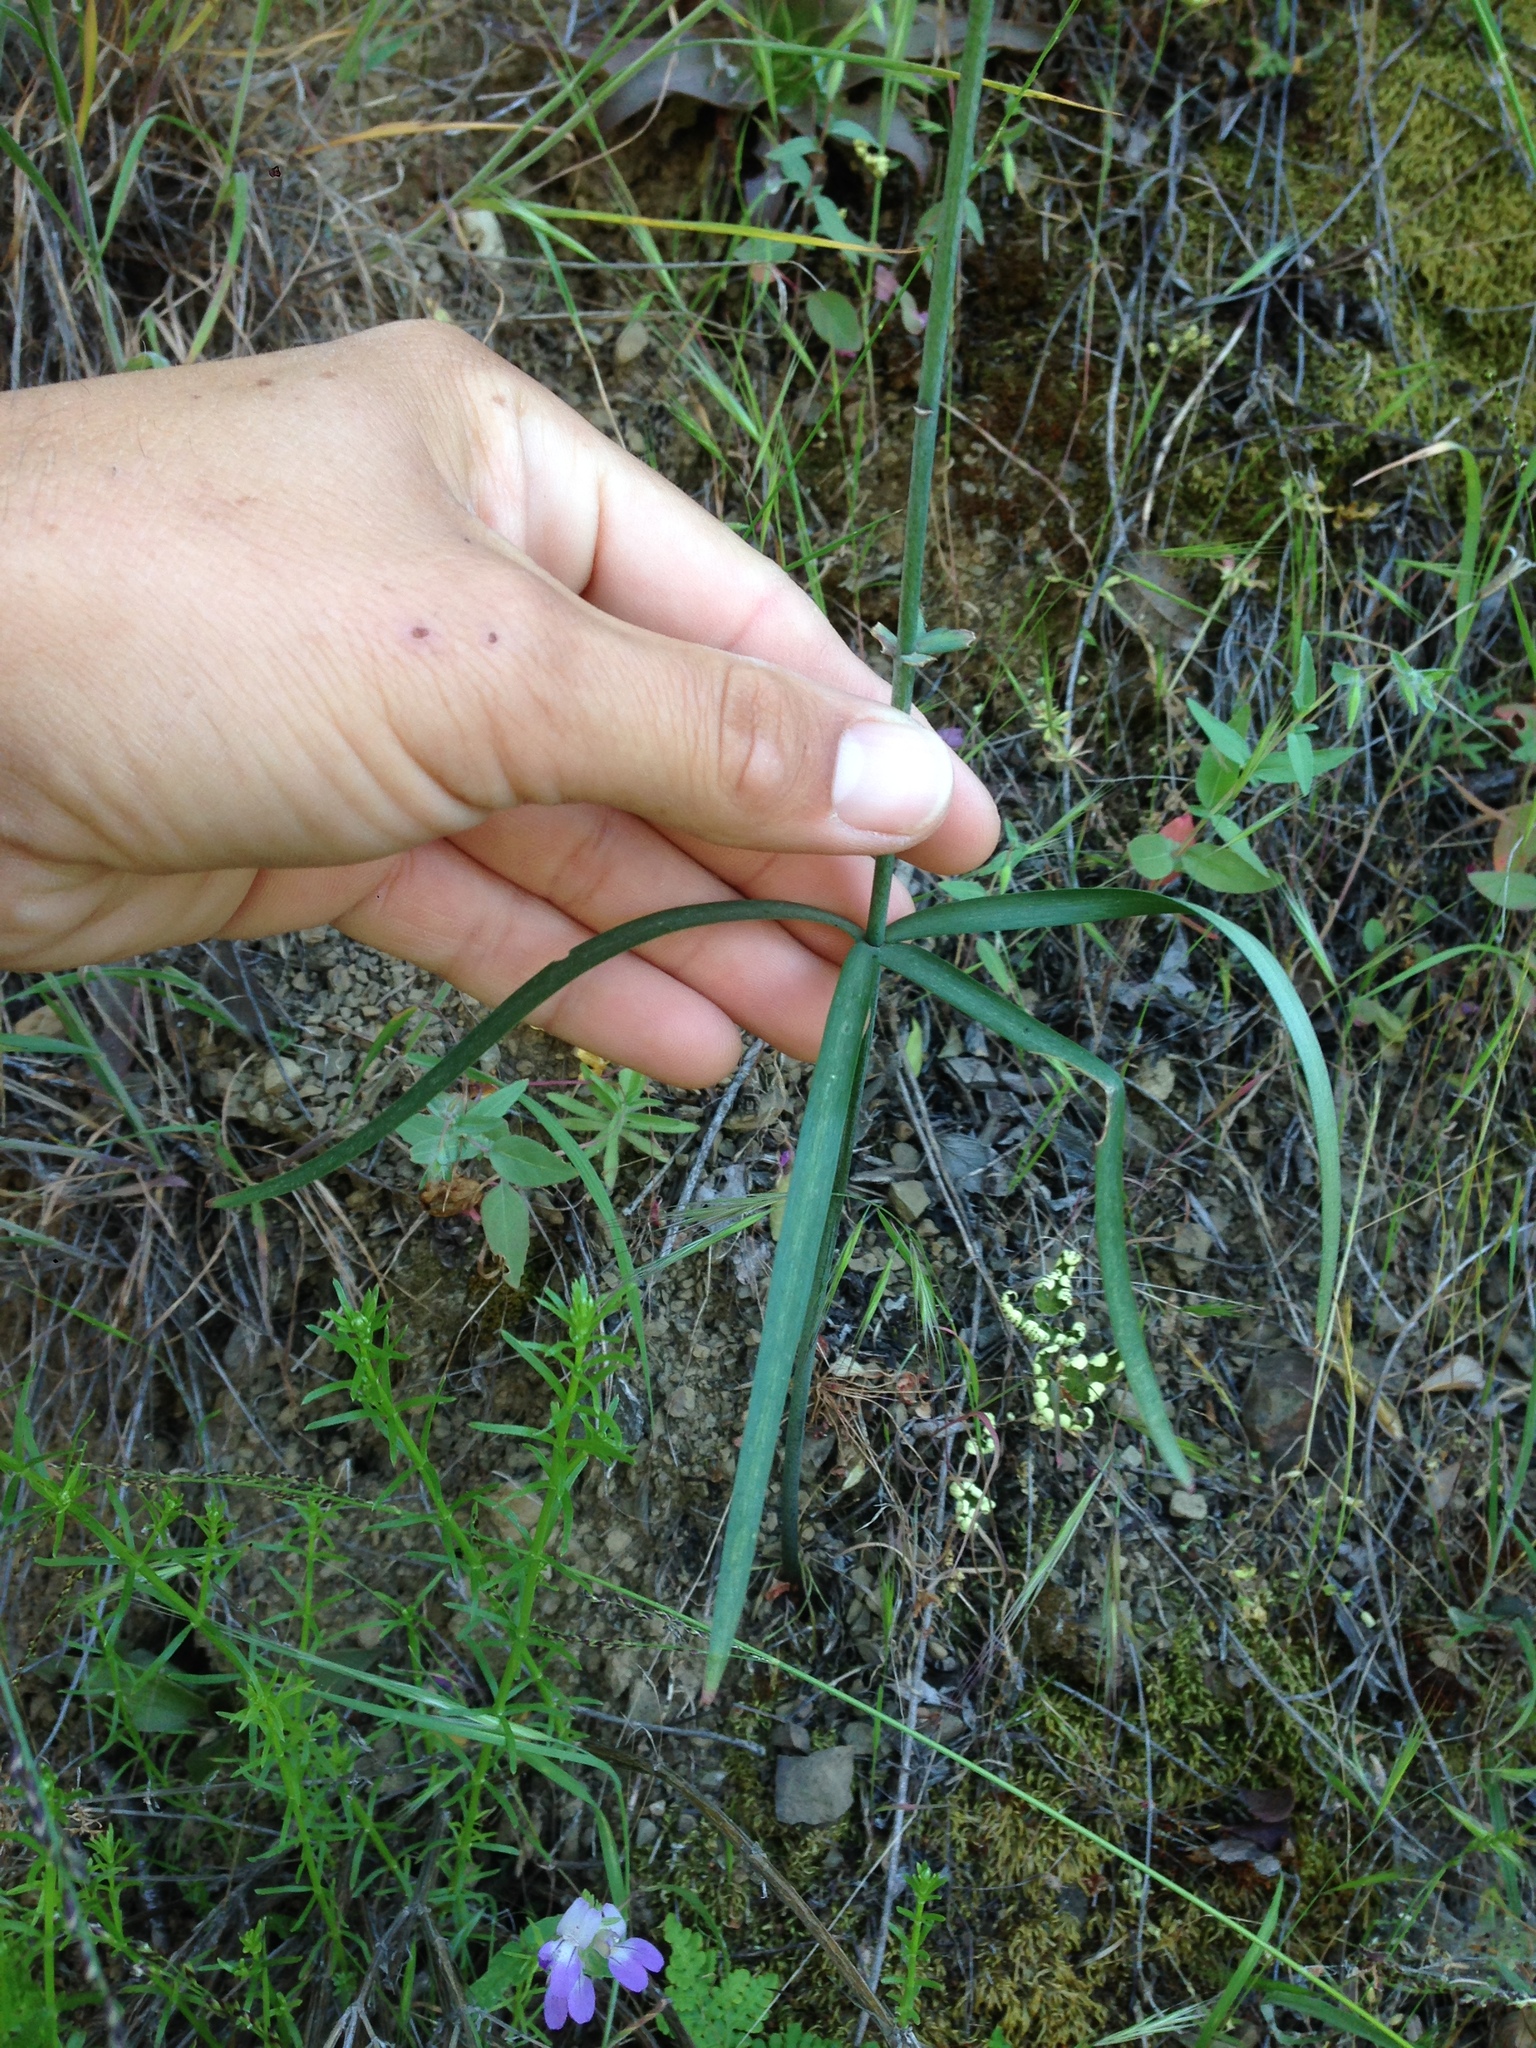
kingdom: Plantae
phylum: Tracheophyta
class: Liliopsida
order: Liliales
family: Liliaceae
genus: Fritillaria
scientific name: Fritillaria ojaiensis
